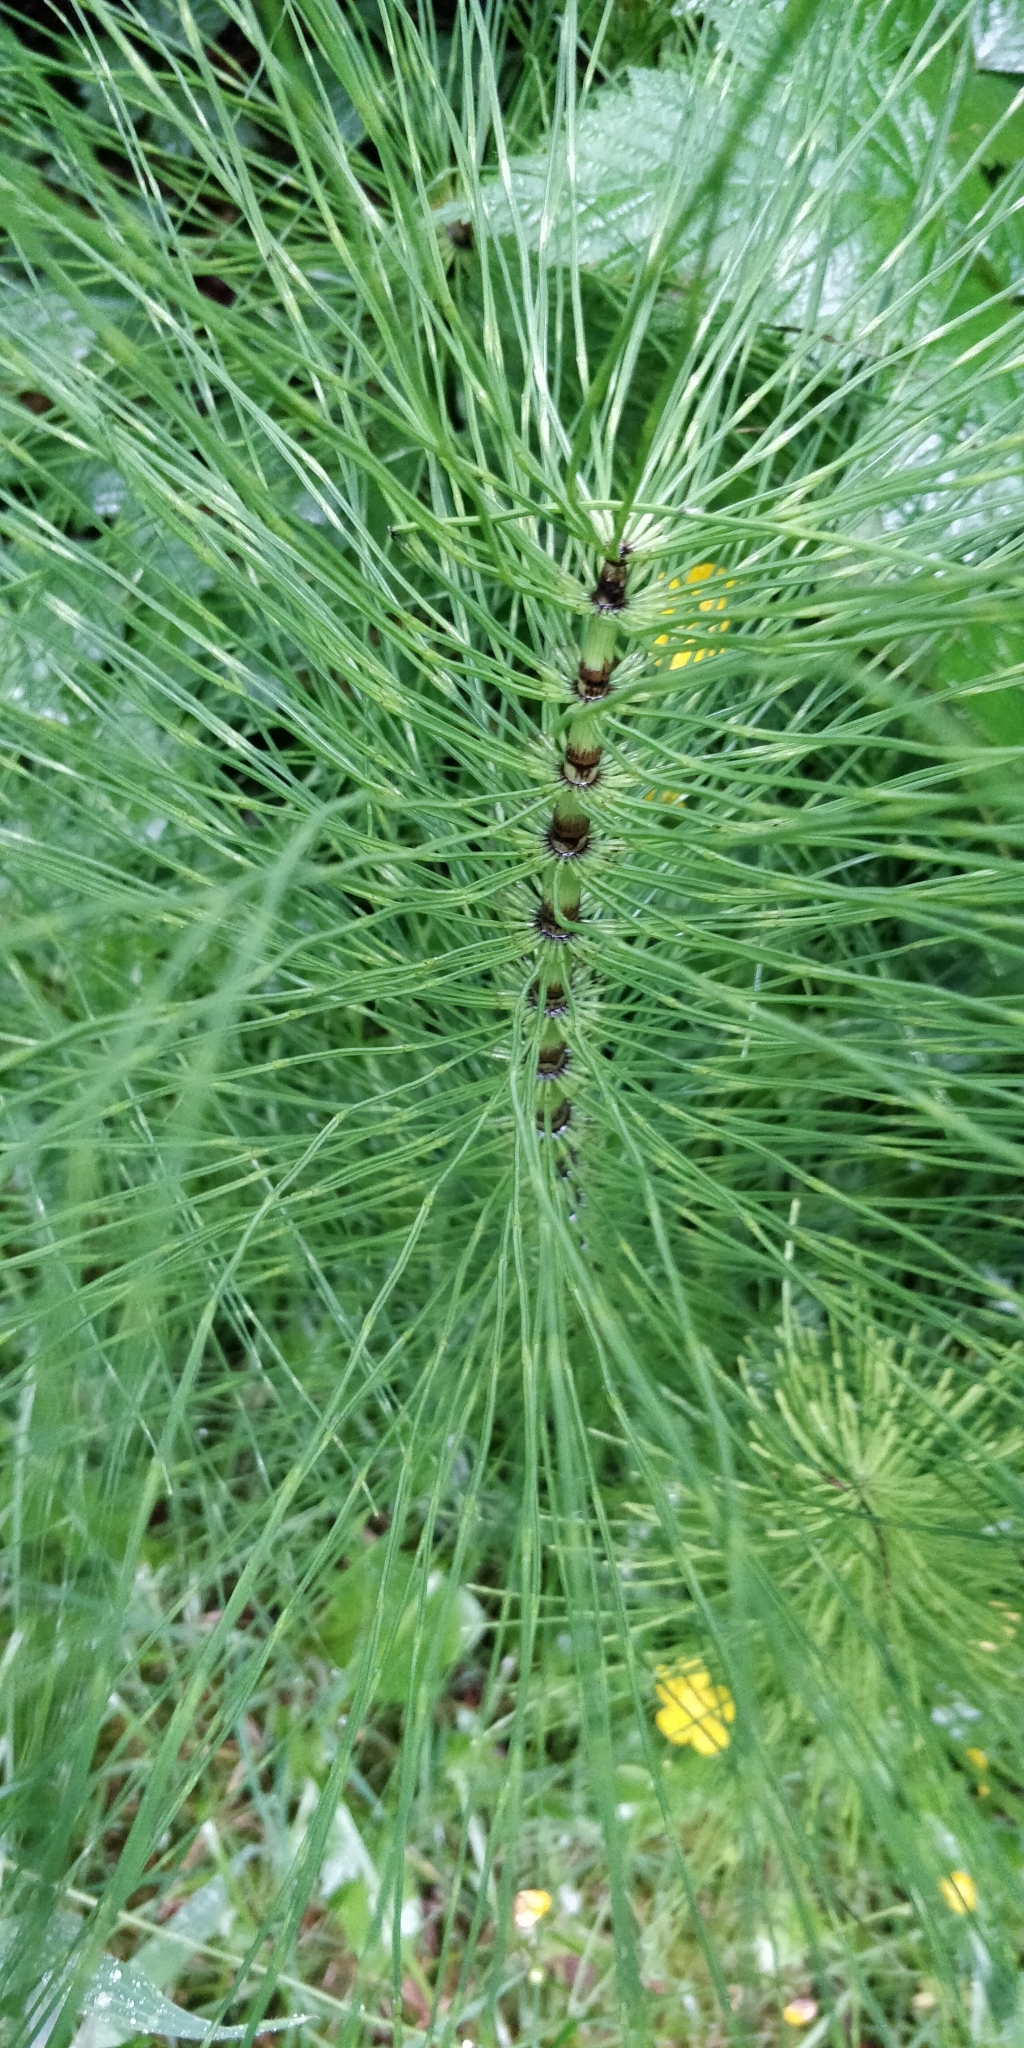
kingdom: Plantae
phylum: Tracheophyta
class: Polypodiopsida
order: Equisetales
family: Equisetaceae
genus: Equisetum
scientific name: Equisetum telmateia
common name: Great horsetail
